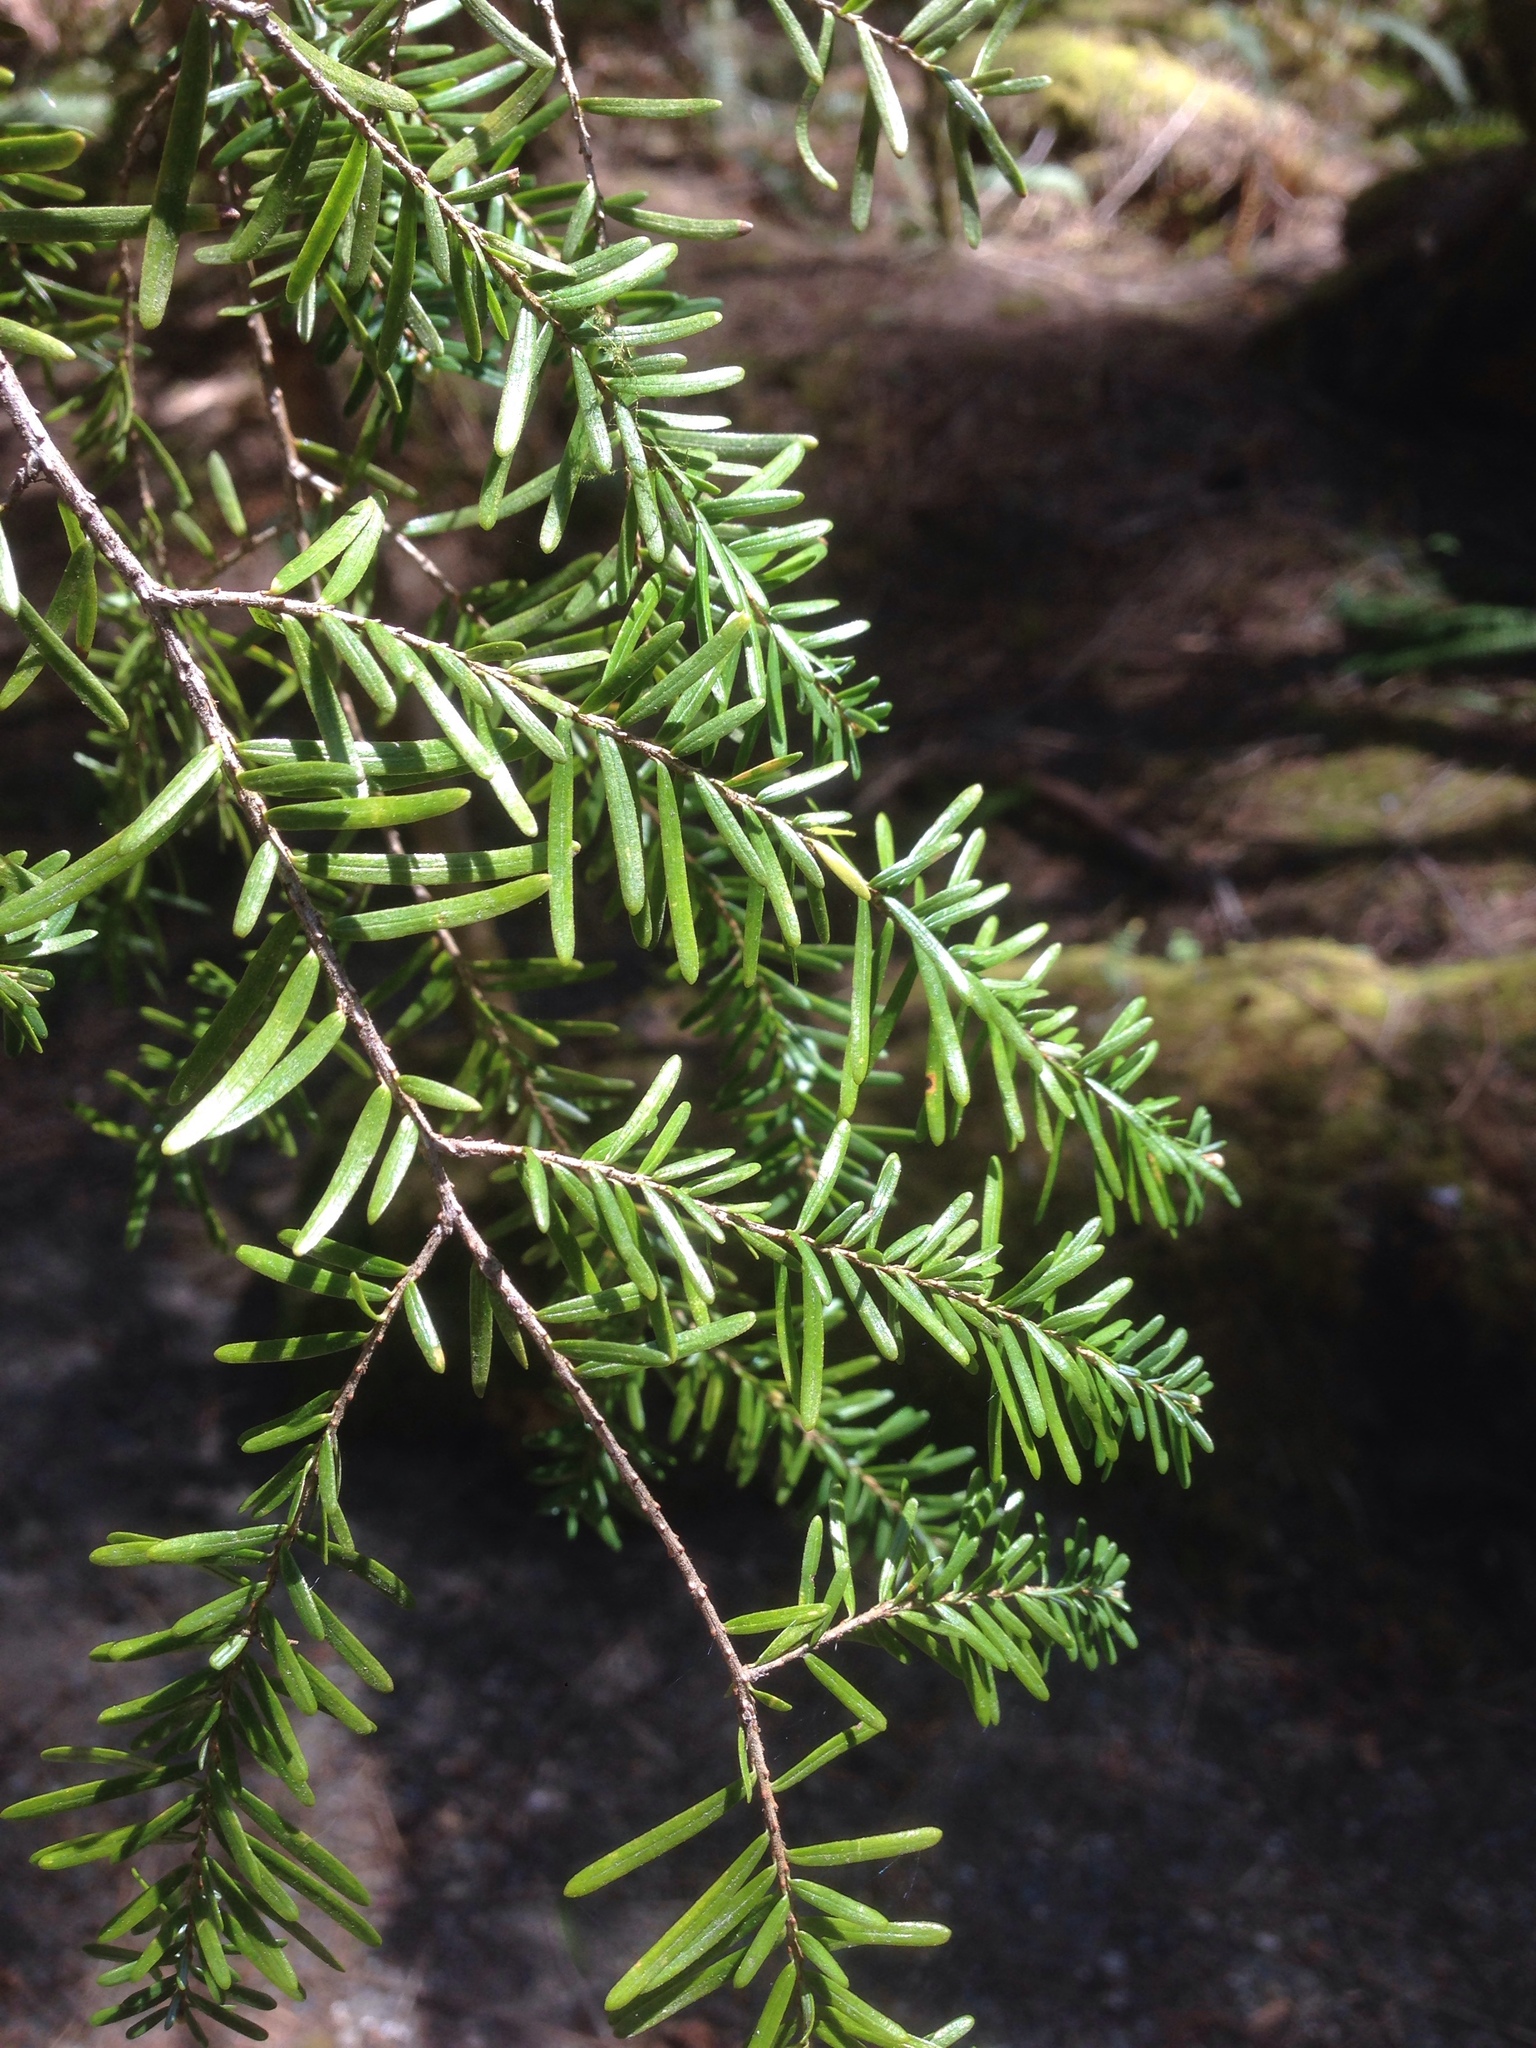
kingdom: Plantae
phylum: Tracheophyta
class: Pinopsida
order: Pinales
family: Pinaceae
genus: Tsuga
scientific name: Tsuga heterophylla
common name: Western hemlock
